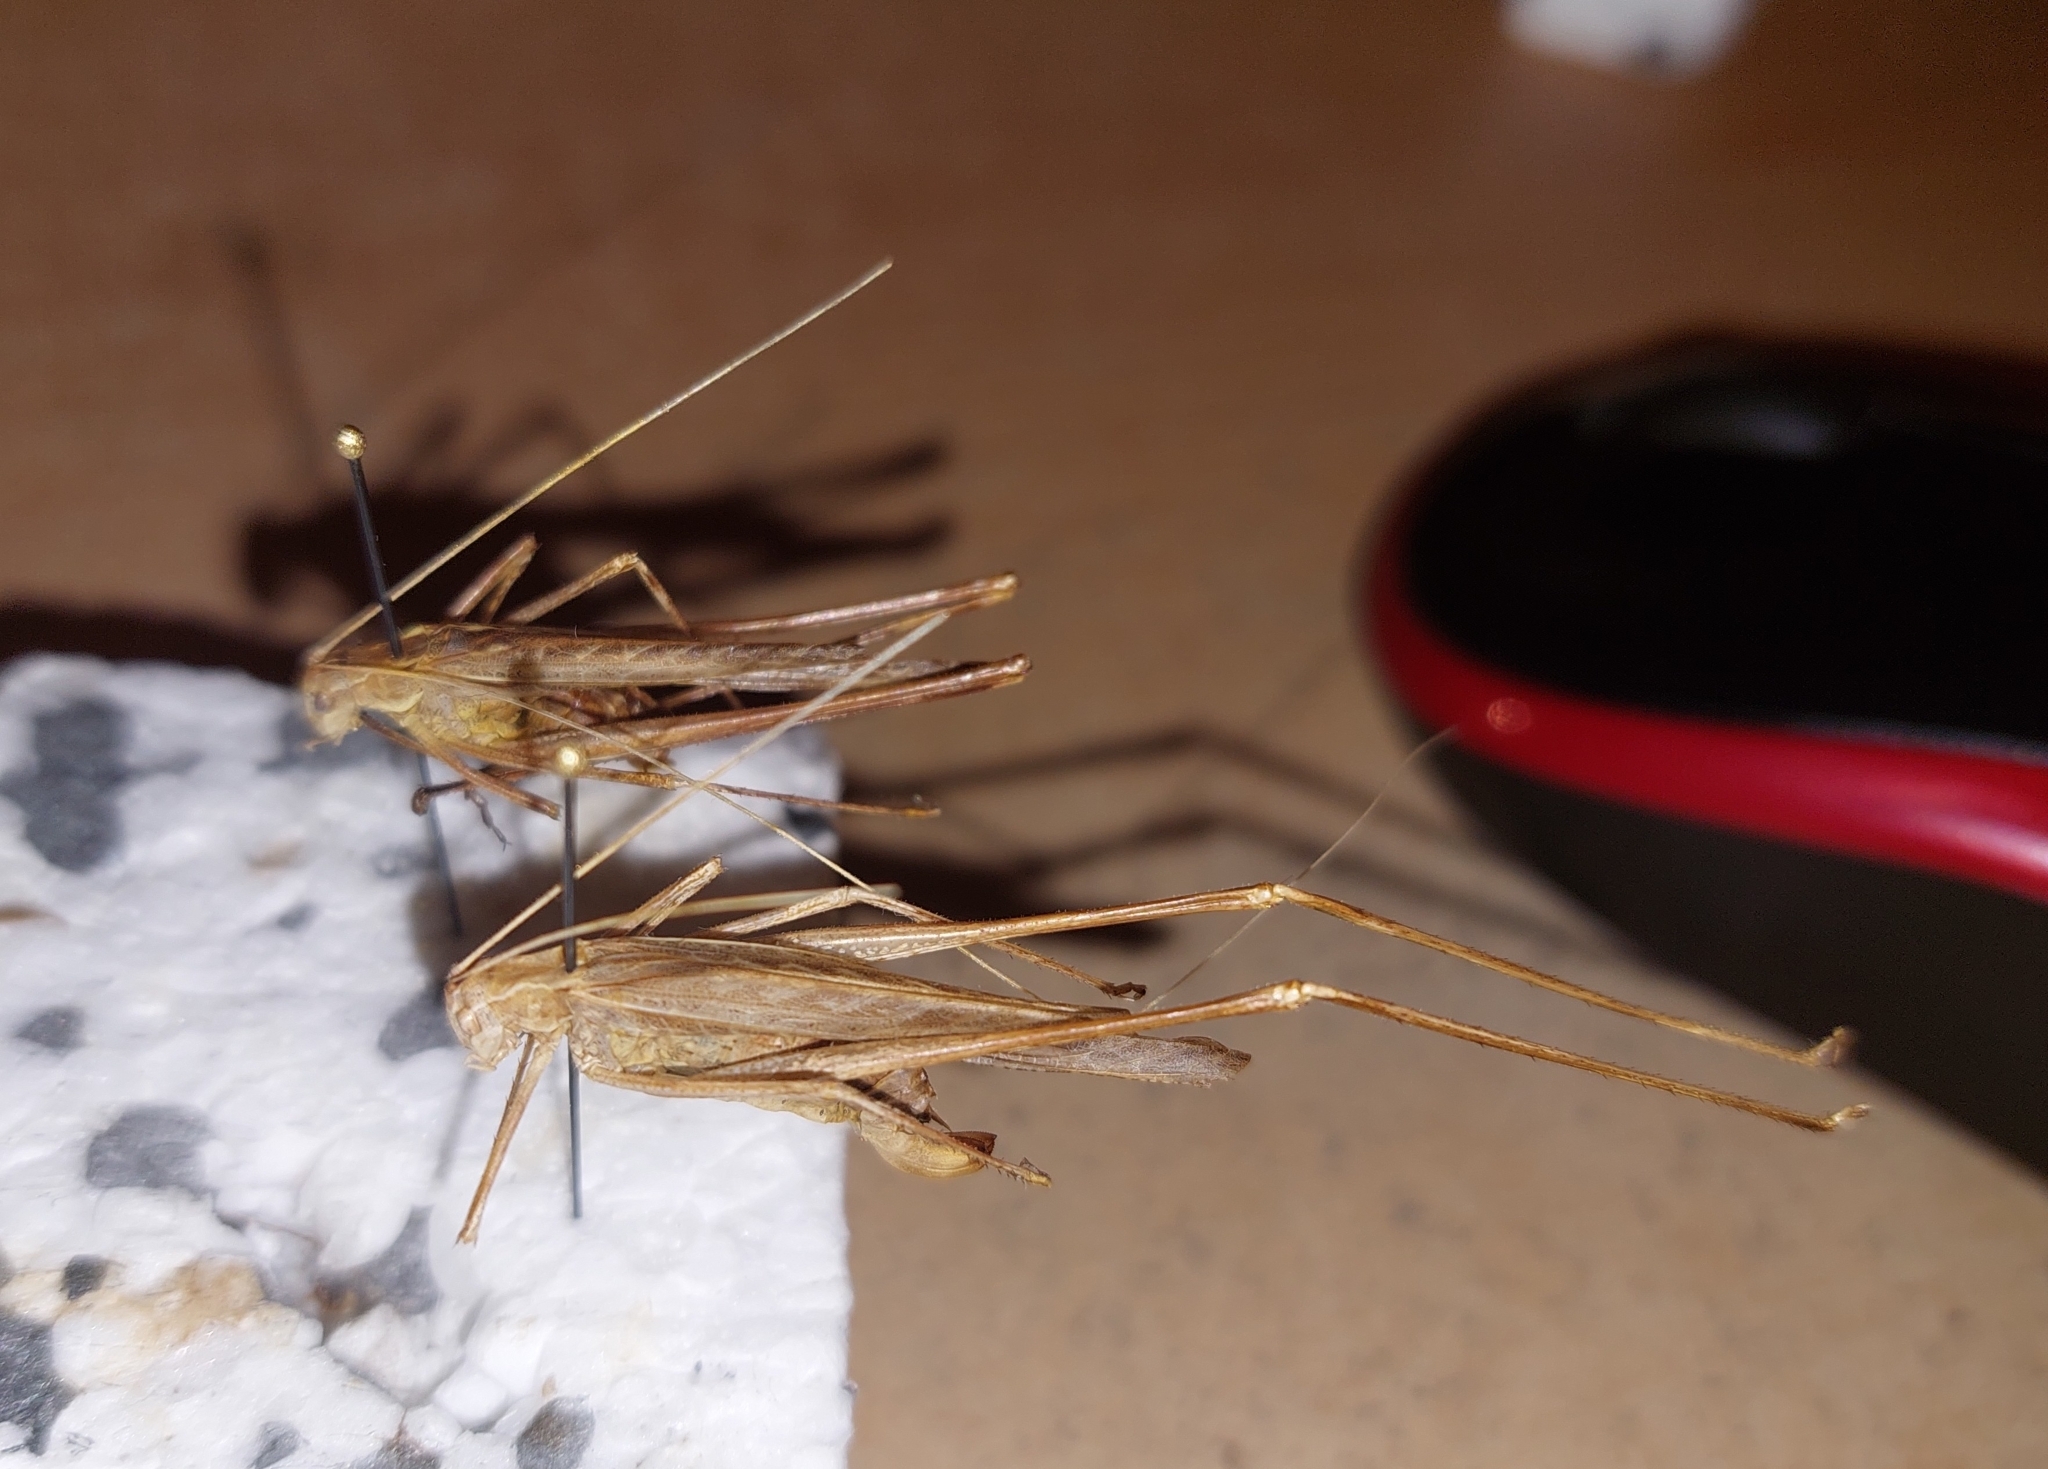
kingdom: Animalia
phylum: Arthropoda
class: Insecta
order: Orthoptera
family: Tettigoniidae
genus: Tylopsis
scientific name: Tylopsis lilifolia
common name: Lily bush-cricket
